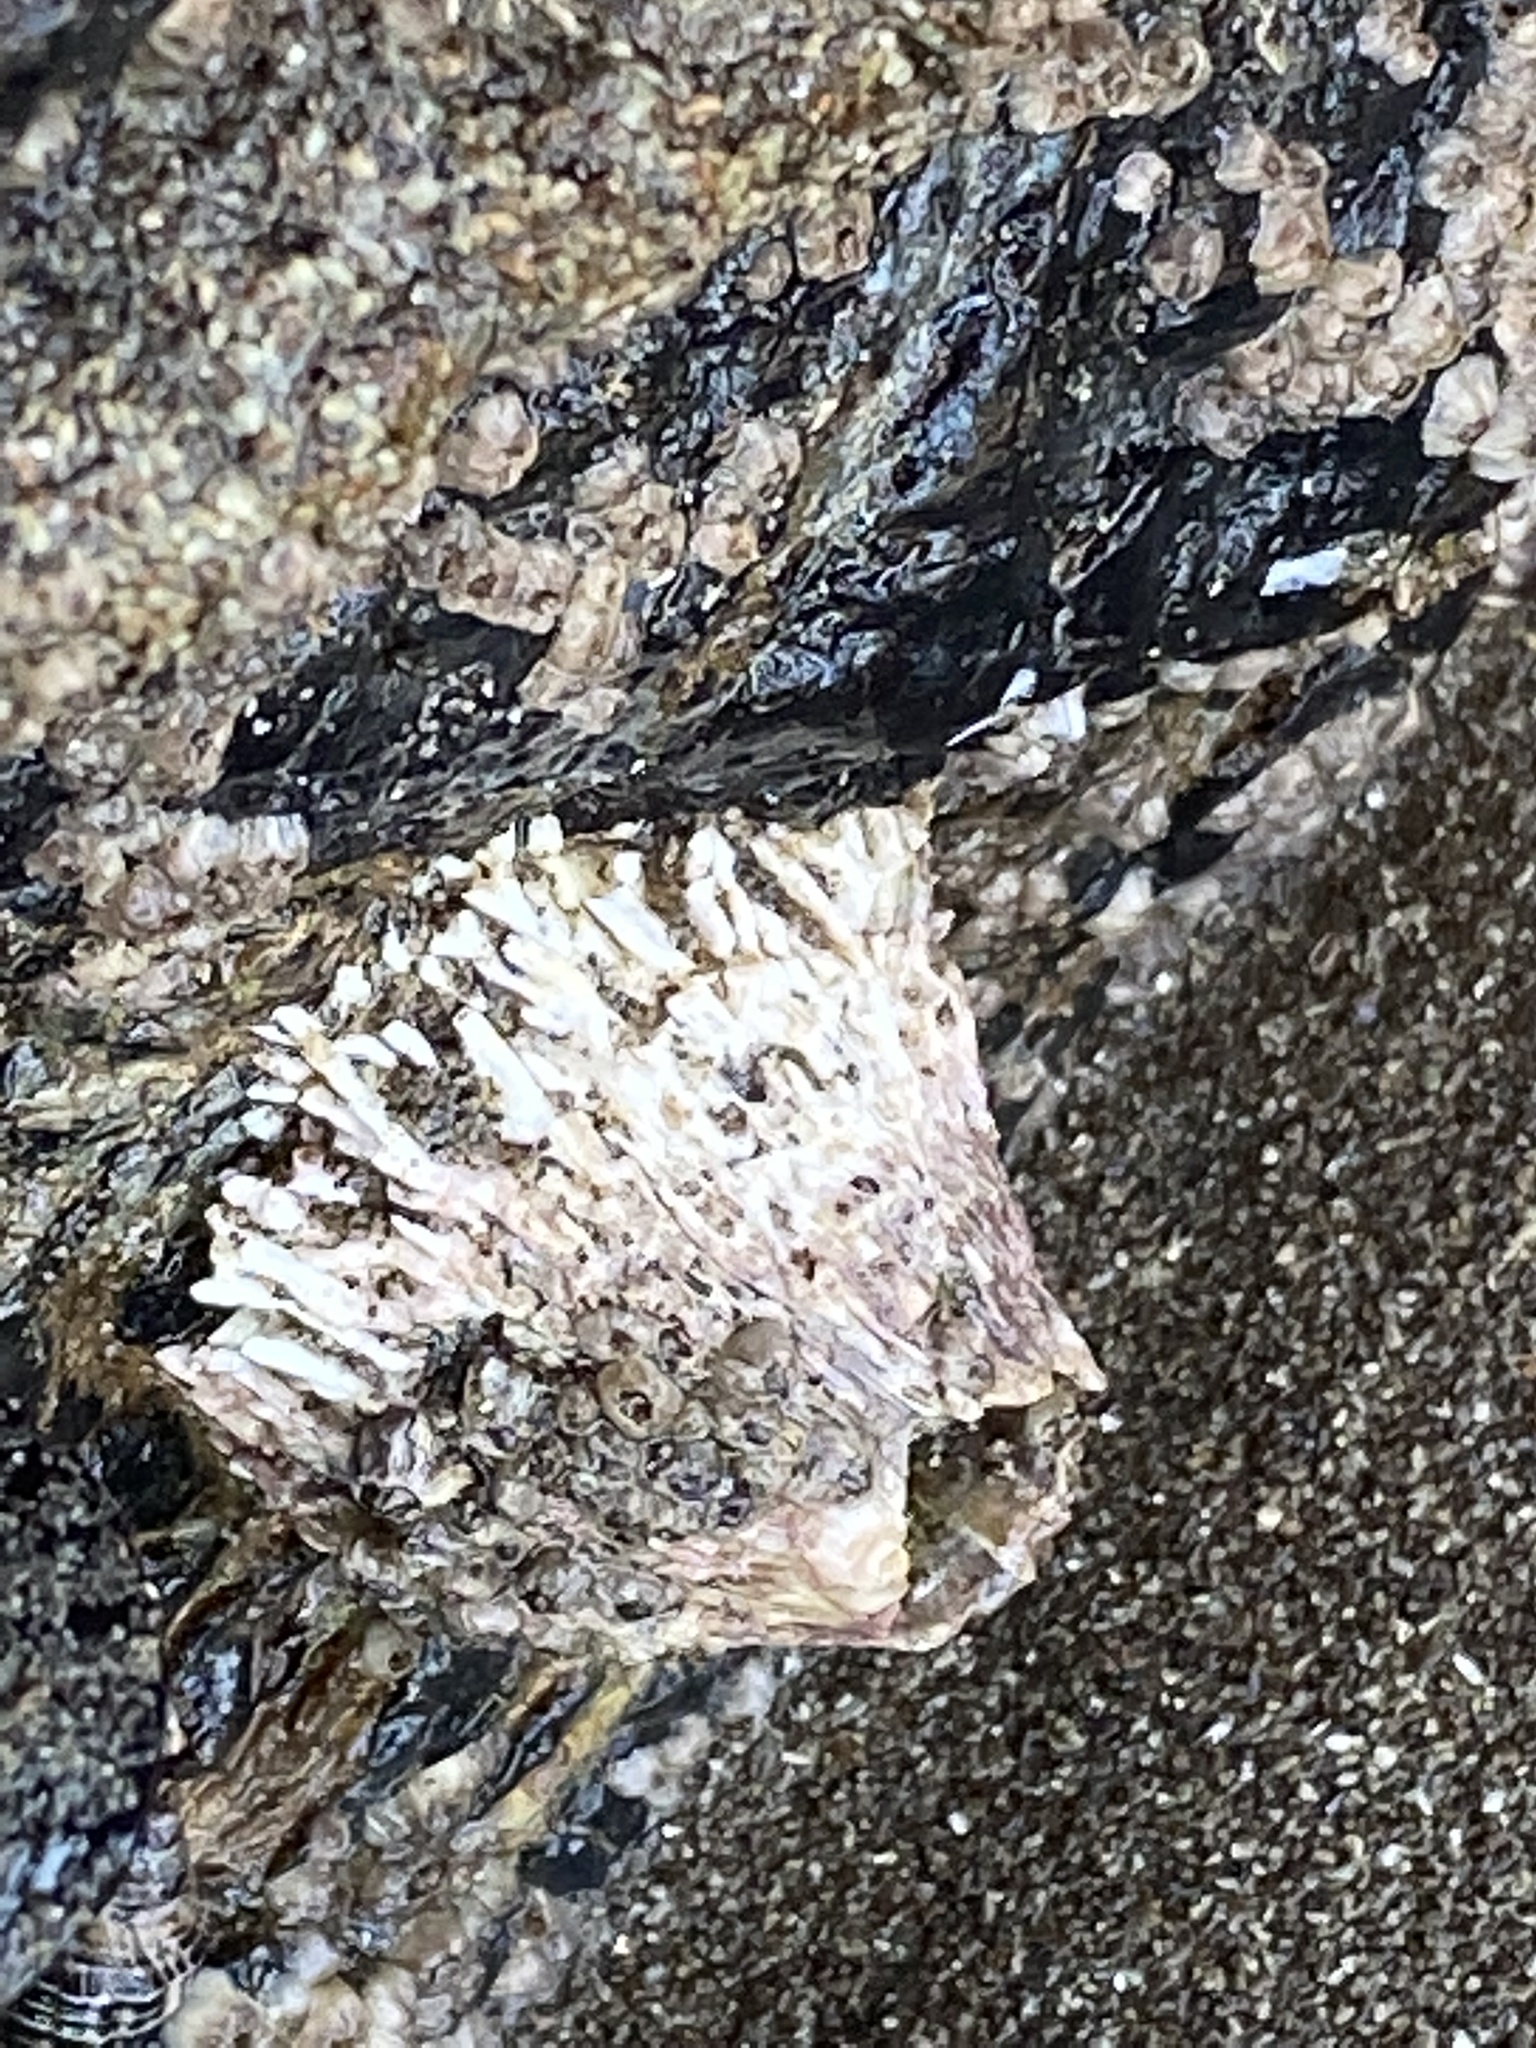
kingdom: Animalia
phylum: Arthropoda
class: Maxillopoda
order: Sessilia
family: Tetraclitidae
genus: Tetraclita
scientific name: Tetraclita rubescens
